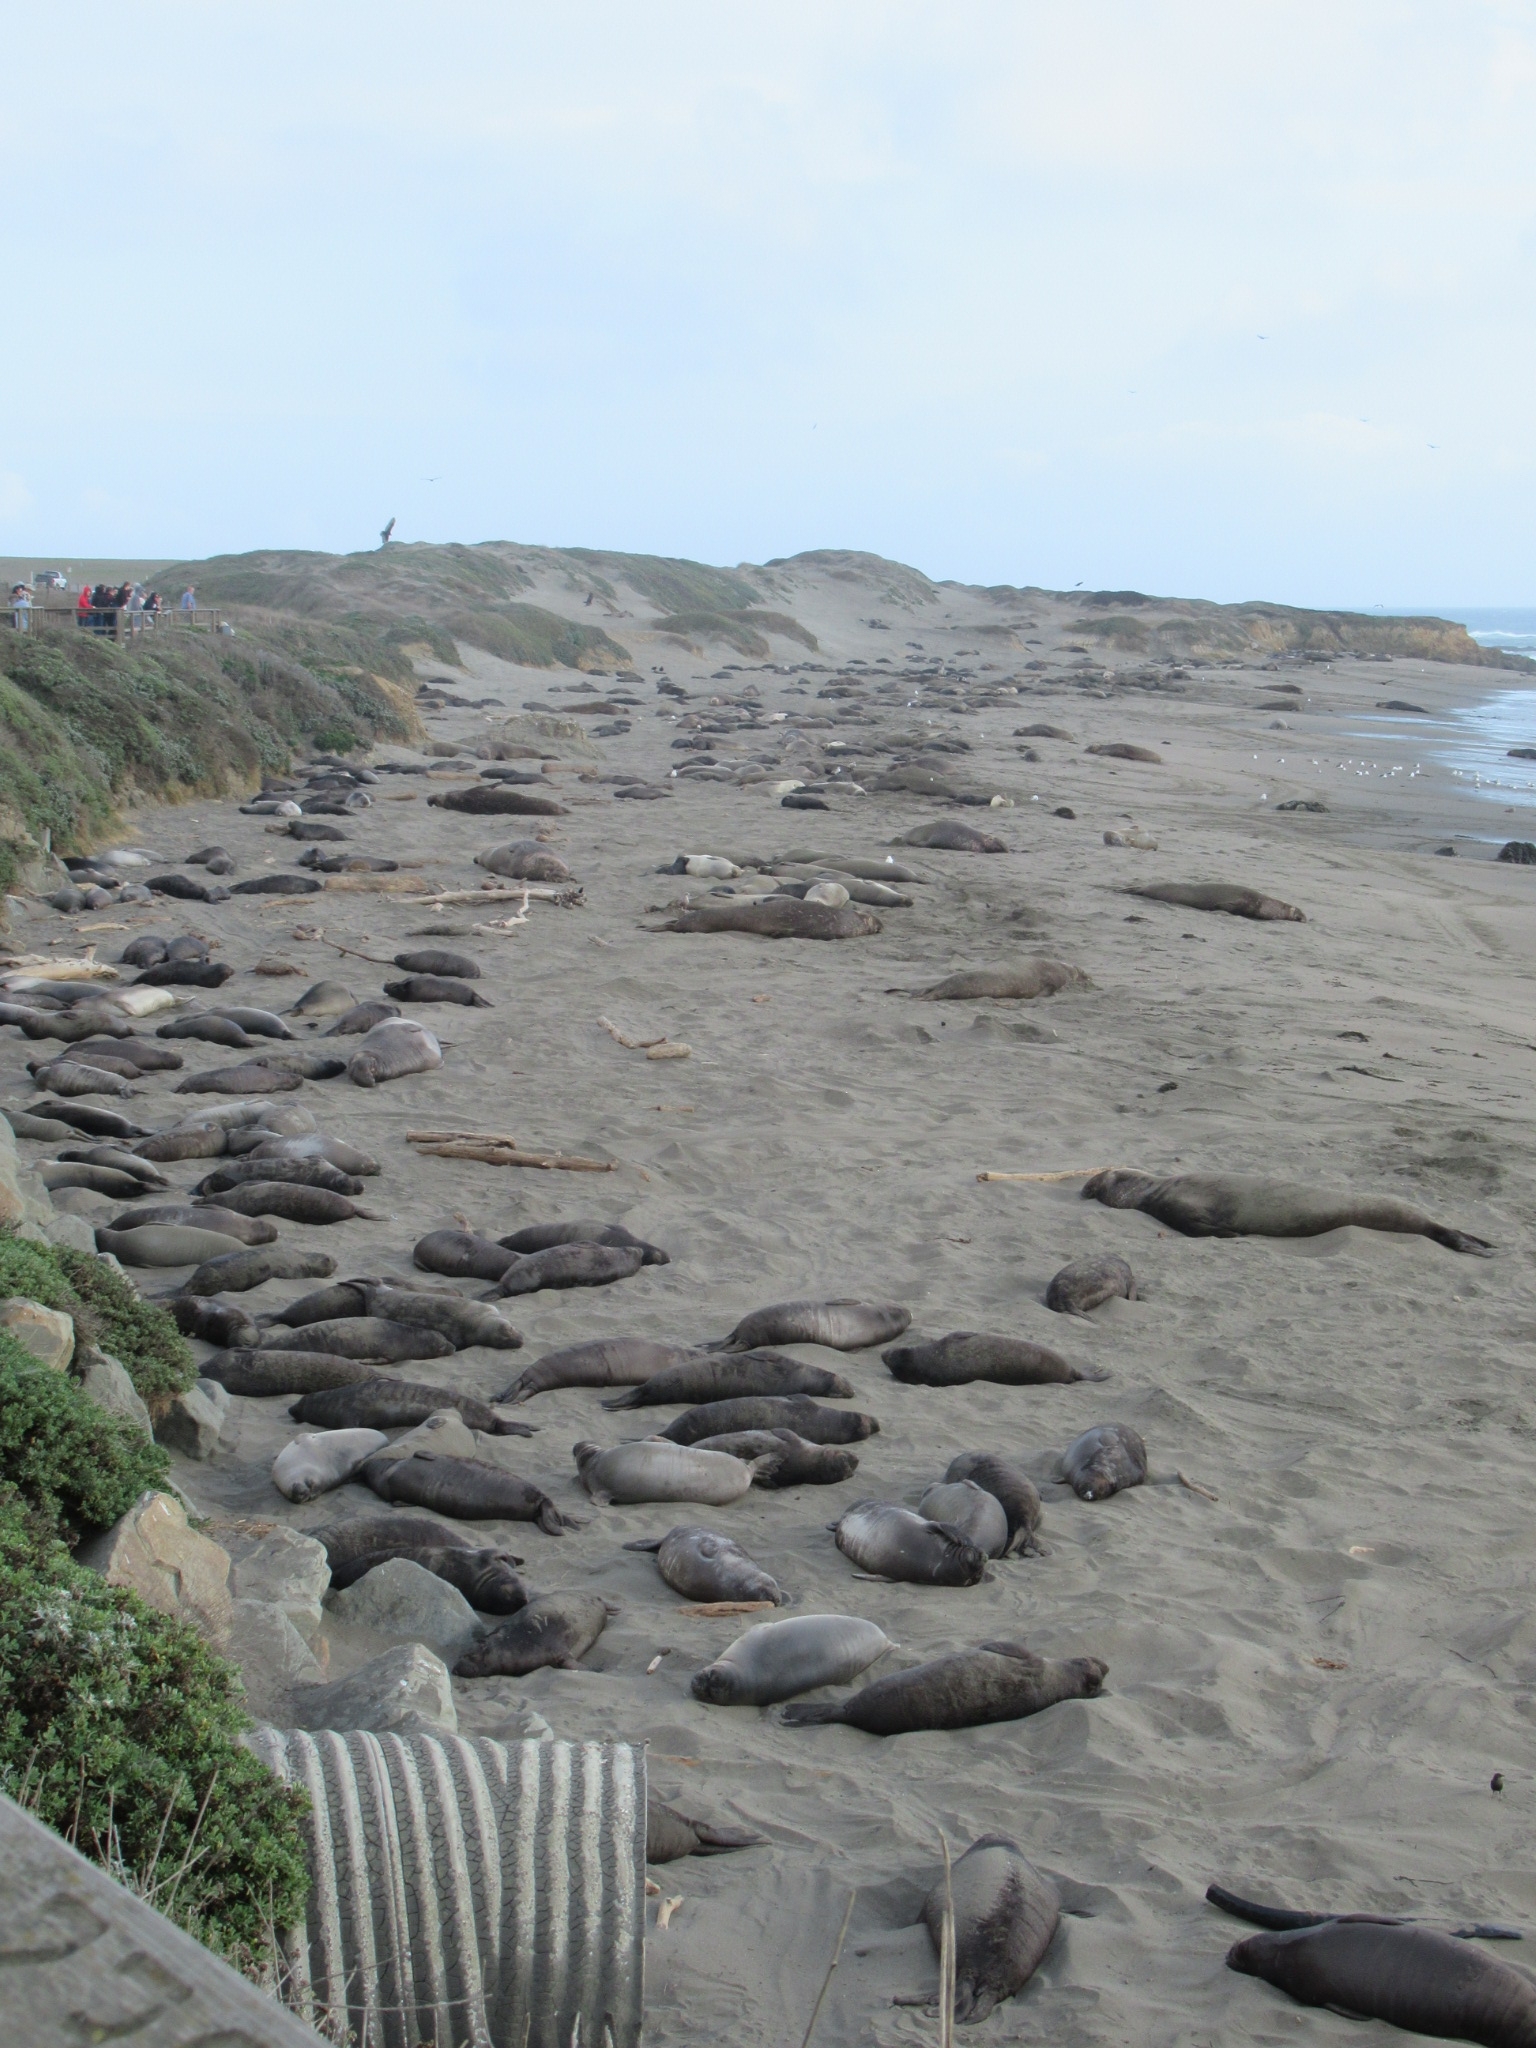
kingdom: Animalia
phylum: Chordata
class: Mammalia
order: Carnivora
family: Phocidae
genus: Mirounga
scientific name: Mirounga angustirostris
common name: Northern elephant seal
